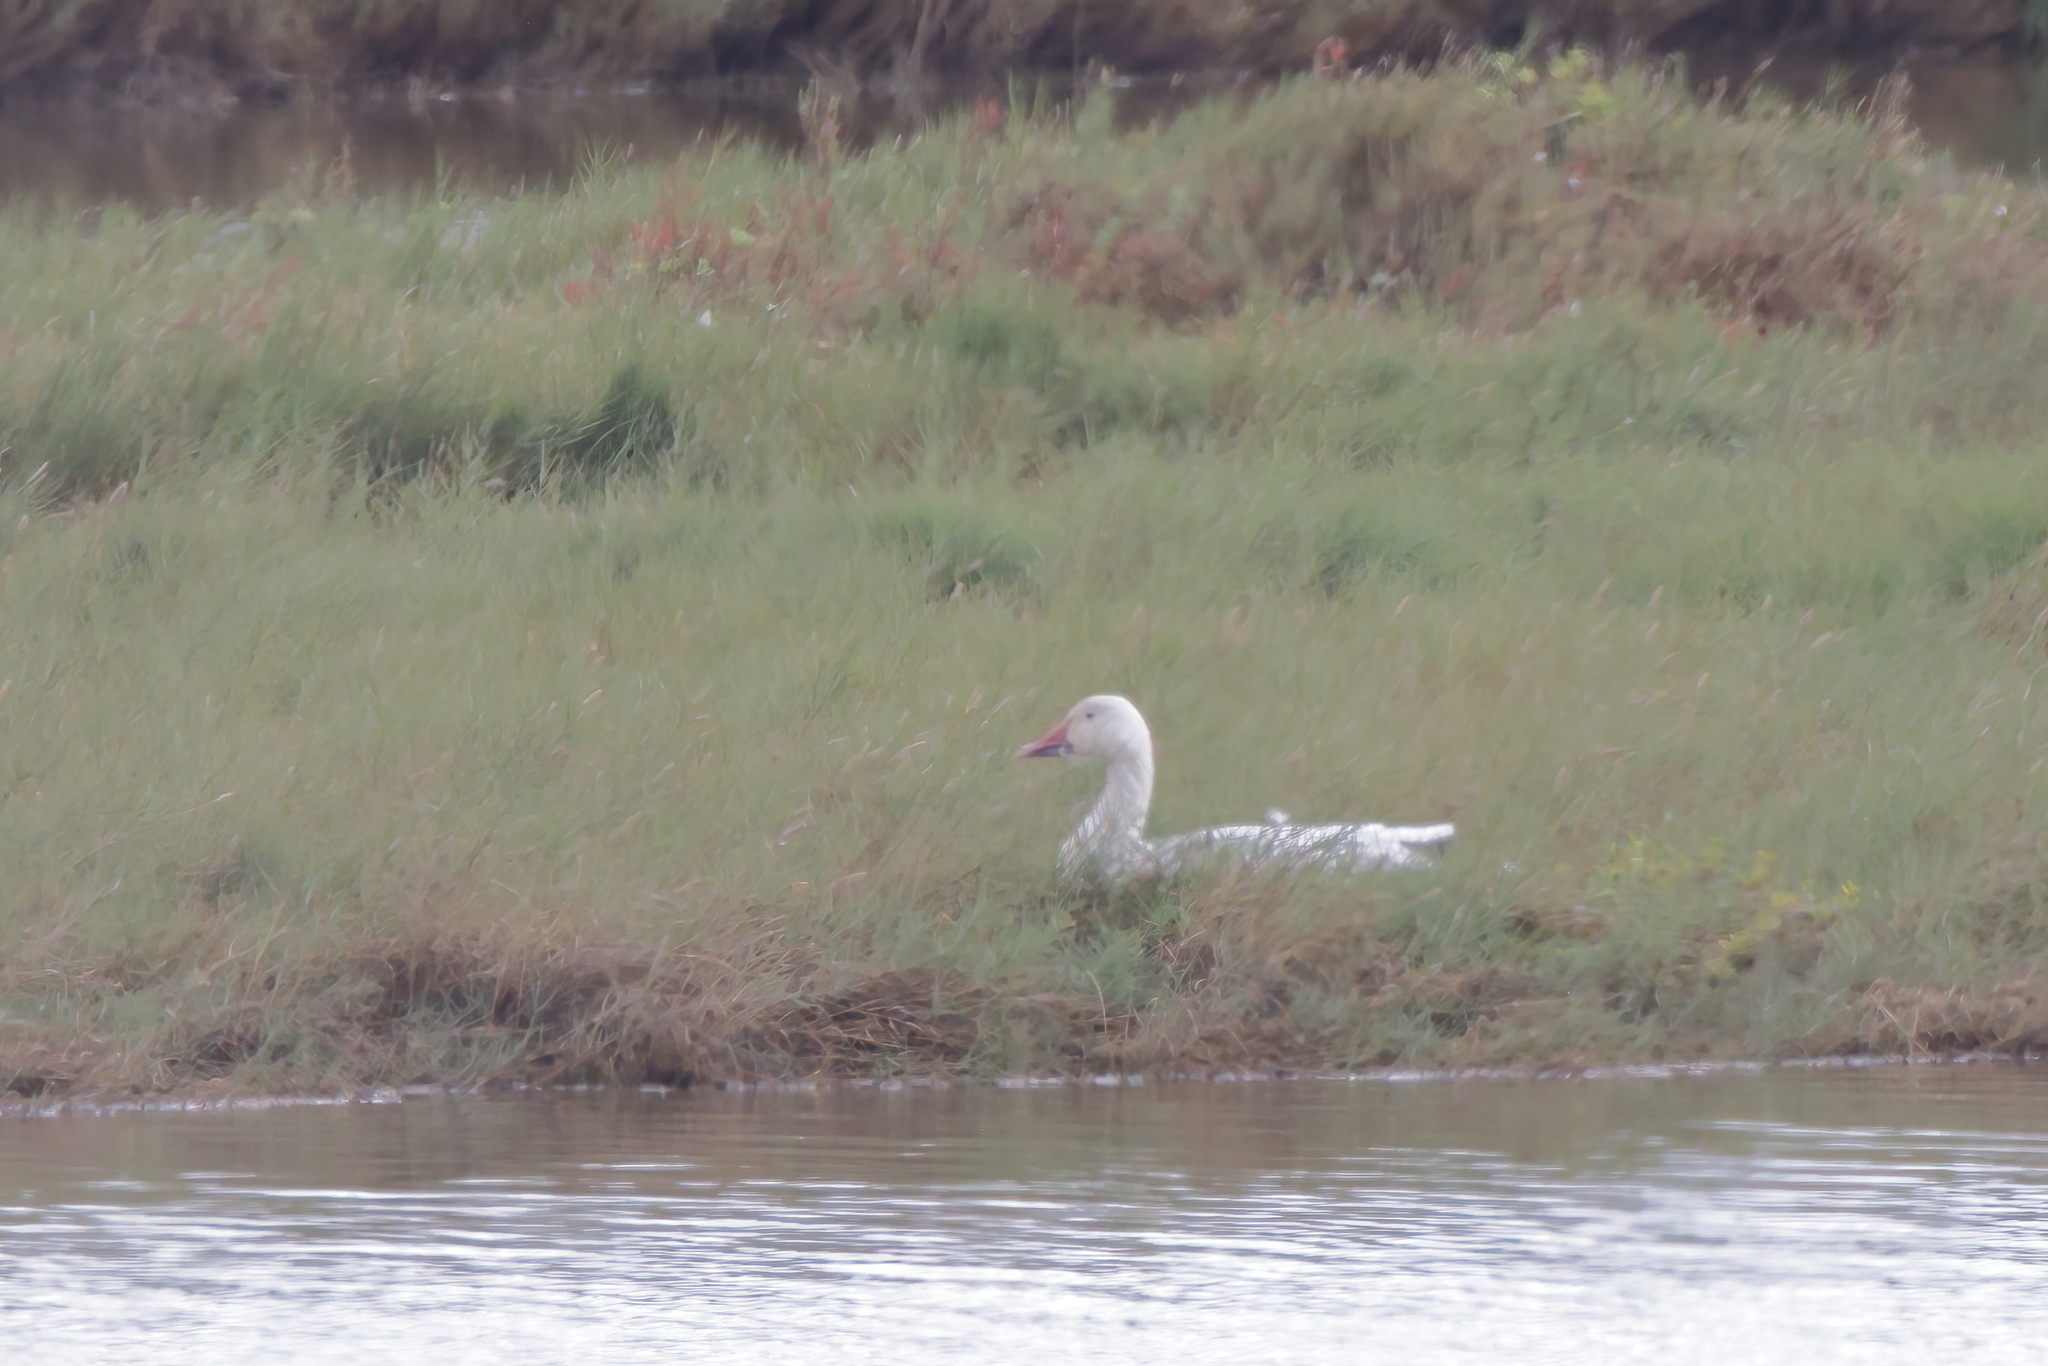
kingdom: Animalia
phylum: Chordata
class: Aves
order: Anseriformes
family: Anatidae
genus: Anser
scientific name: Anser caerulescens
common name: Snow goose
